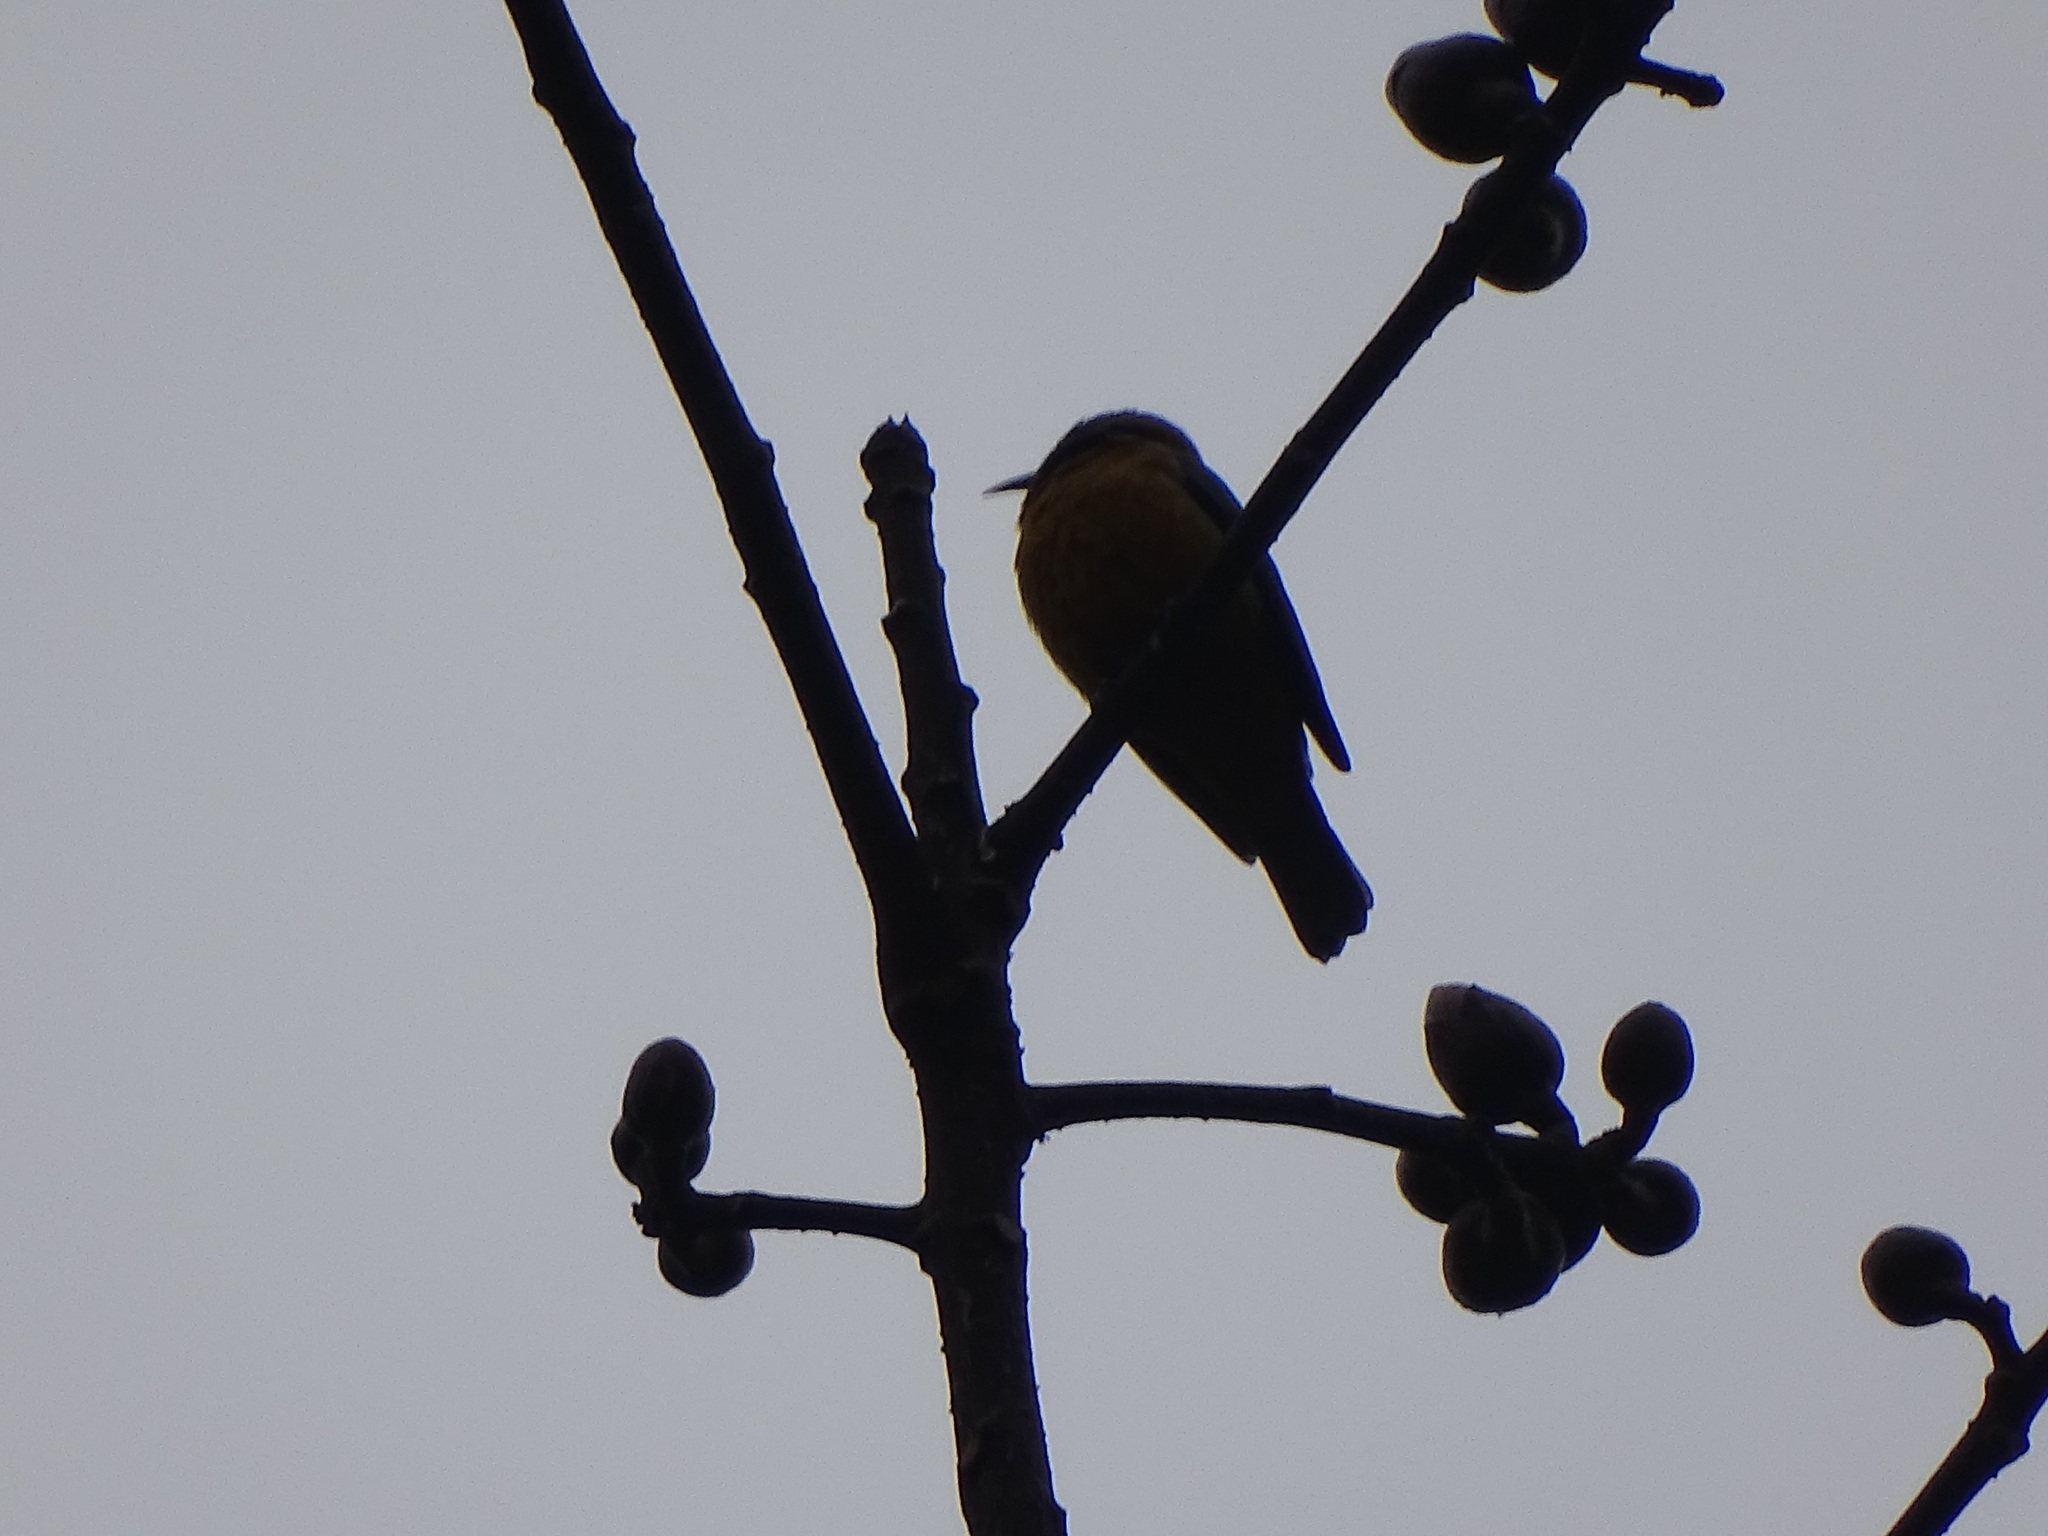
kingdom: Animalia
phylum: Chordata
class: Aves
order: Passeriformes
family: Chloropseidae
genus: Chloropsis
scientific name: Chloropsis hardwickii
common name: Orange-bellied leafbird
